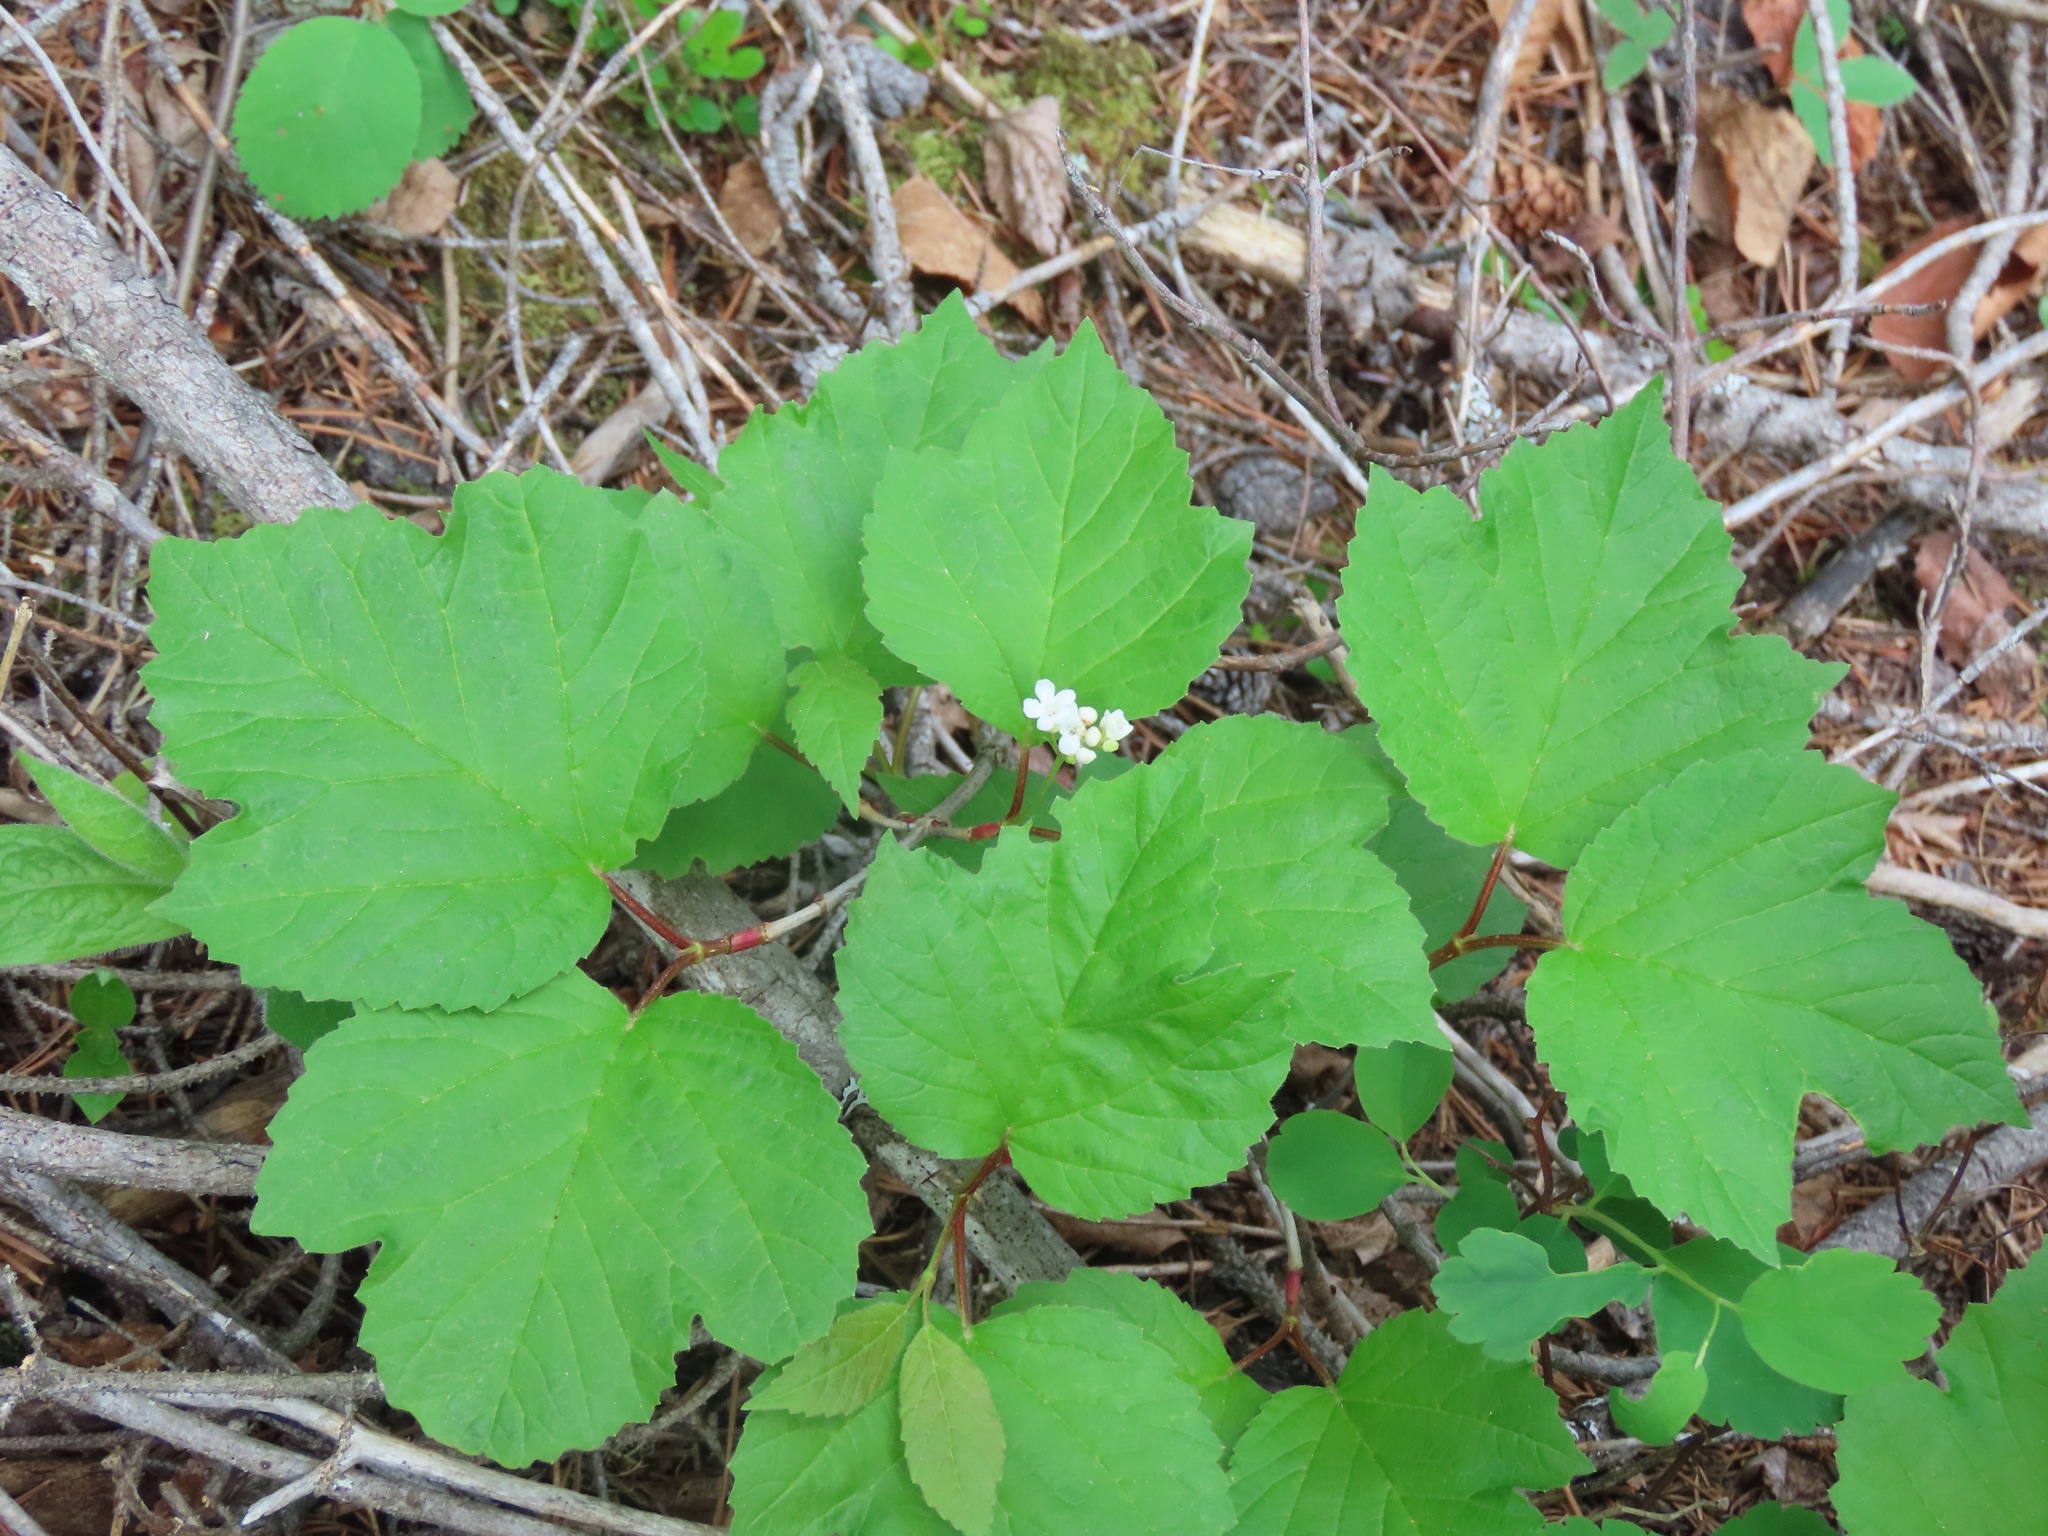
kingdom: Plantae
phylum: Tracheophyta
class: Magnoliopsida
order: Dipsacales
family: Viburnaceae
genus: Viburnum
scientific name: Viburnum edule
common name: Mooseberry
